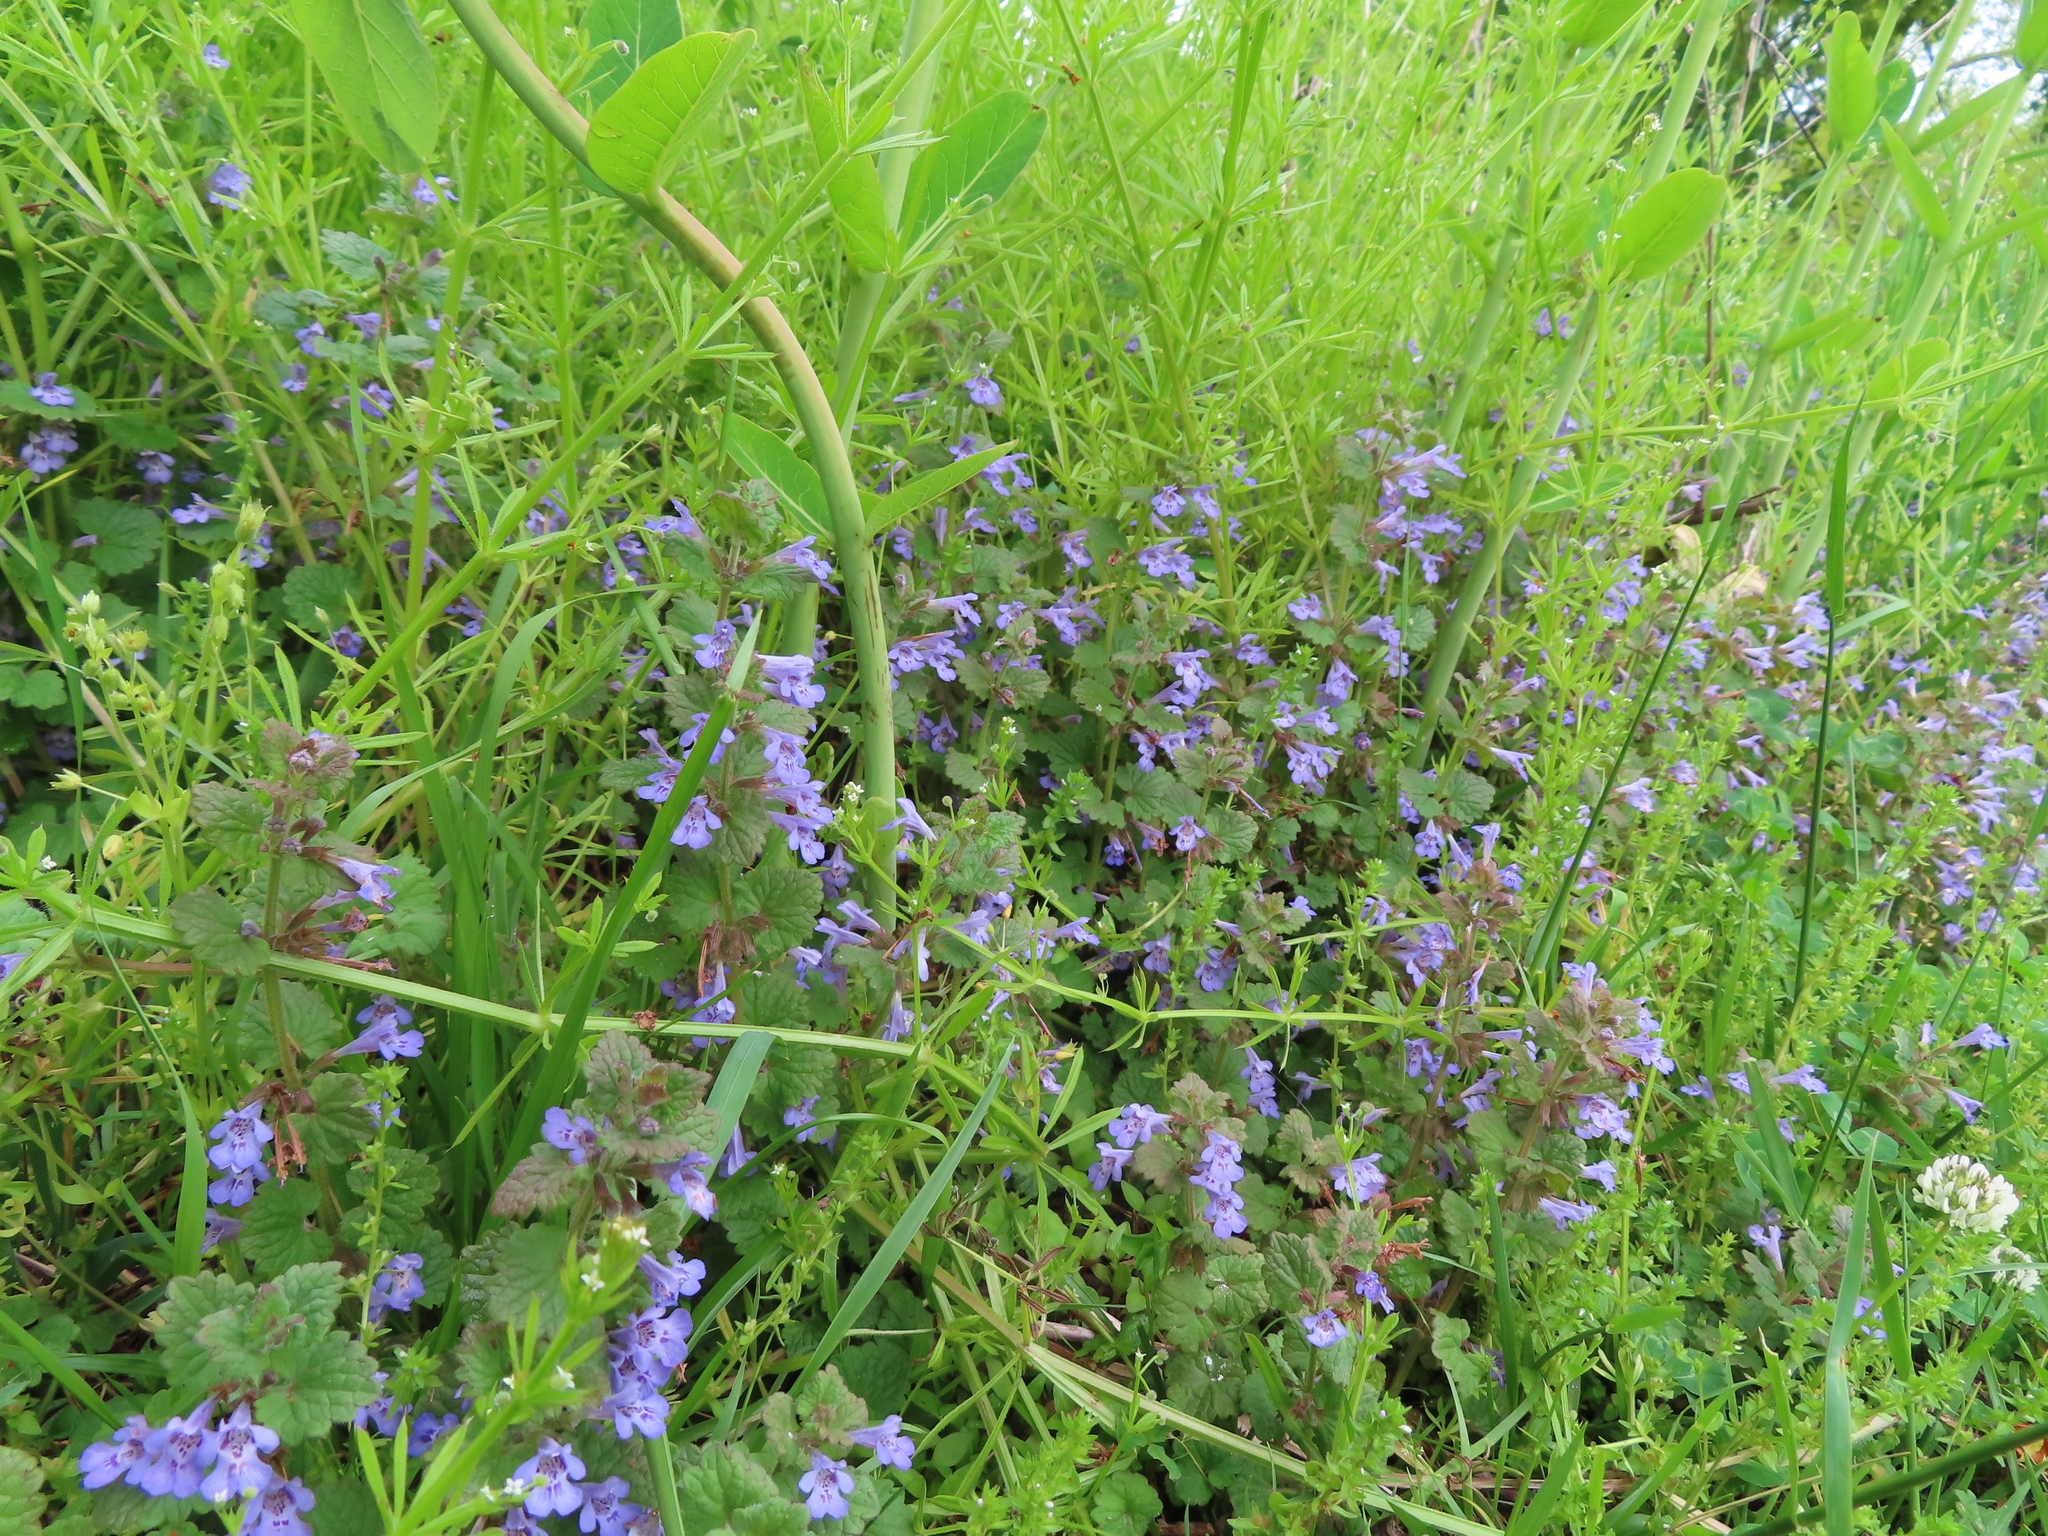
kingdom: Plantae
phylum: Tracheophyta
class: Magnoliopsida
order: Lamiales
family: Lamiaceae
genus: Glechoma
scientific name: Glechoma hederacea
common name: Ground ivy
